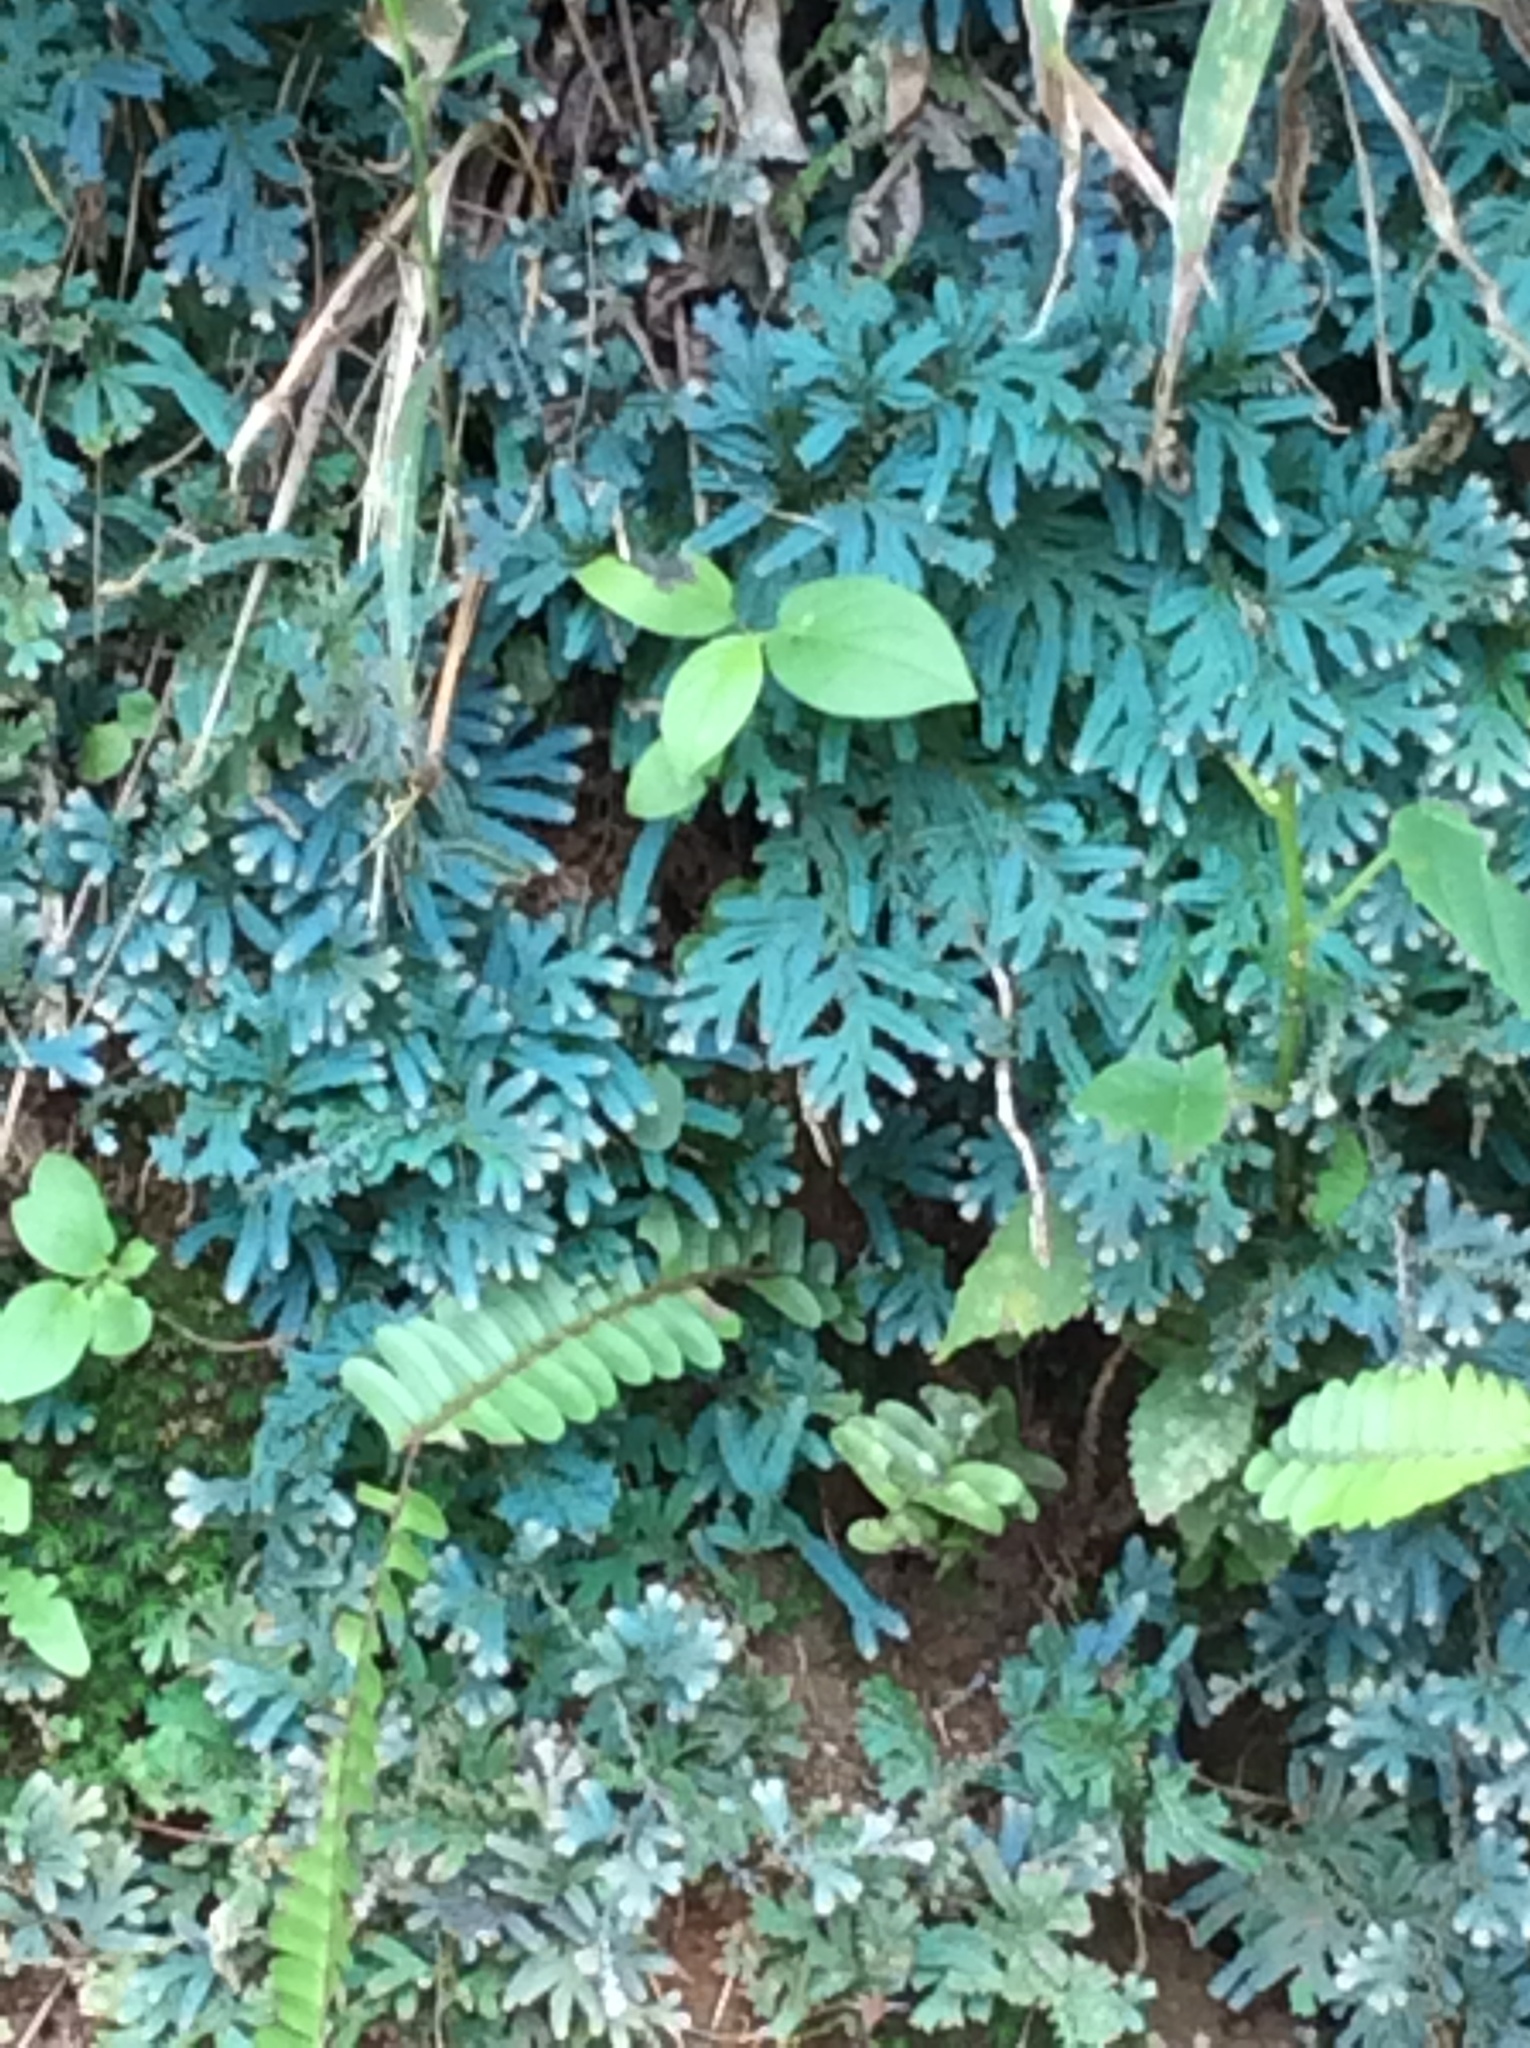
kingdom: Plantae
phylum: Tracheophyta
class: Lycopodiopsida
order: Selaginellales
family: Selaginellaceae
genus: Selaginella
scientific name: Selaginella willdenowii
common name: Willdenow's spikemoss
